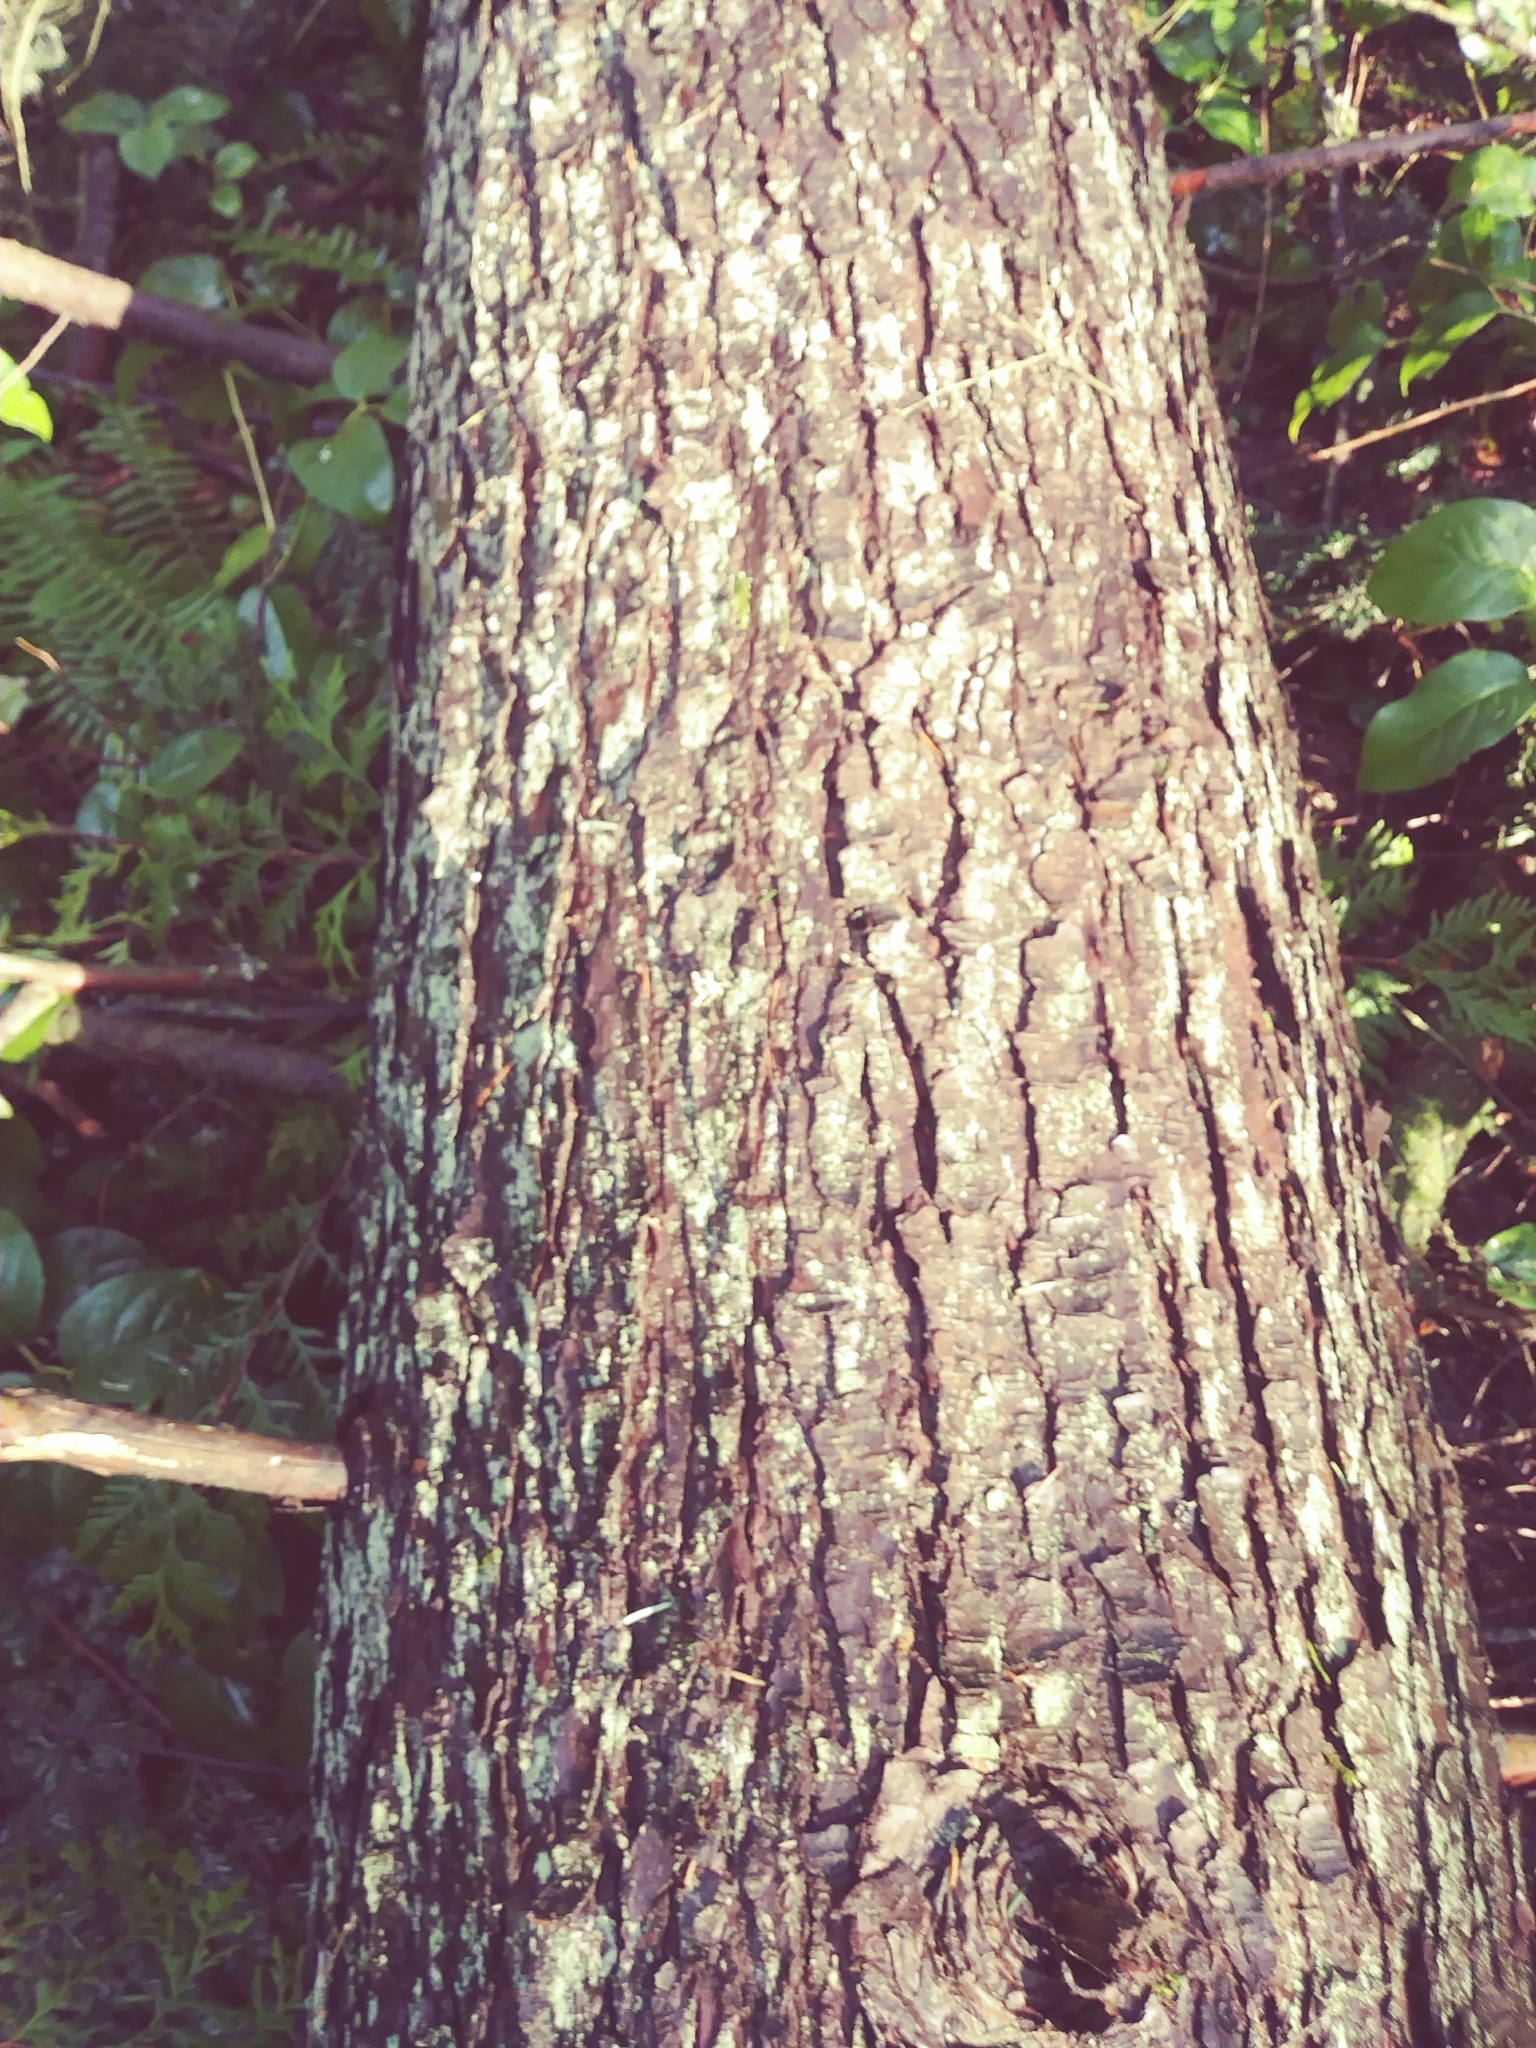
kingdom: Plantae
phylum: Tracheophyta
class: Pinopsida
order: Pinales
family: Pinaceae
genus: Tsuga
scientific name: Tsuga heterophylla
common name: Western hemlock
